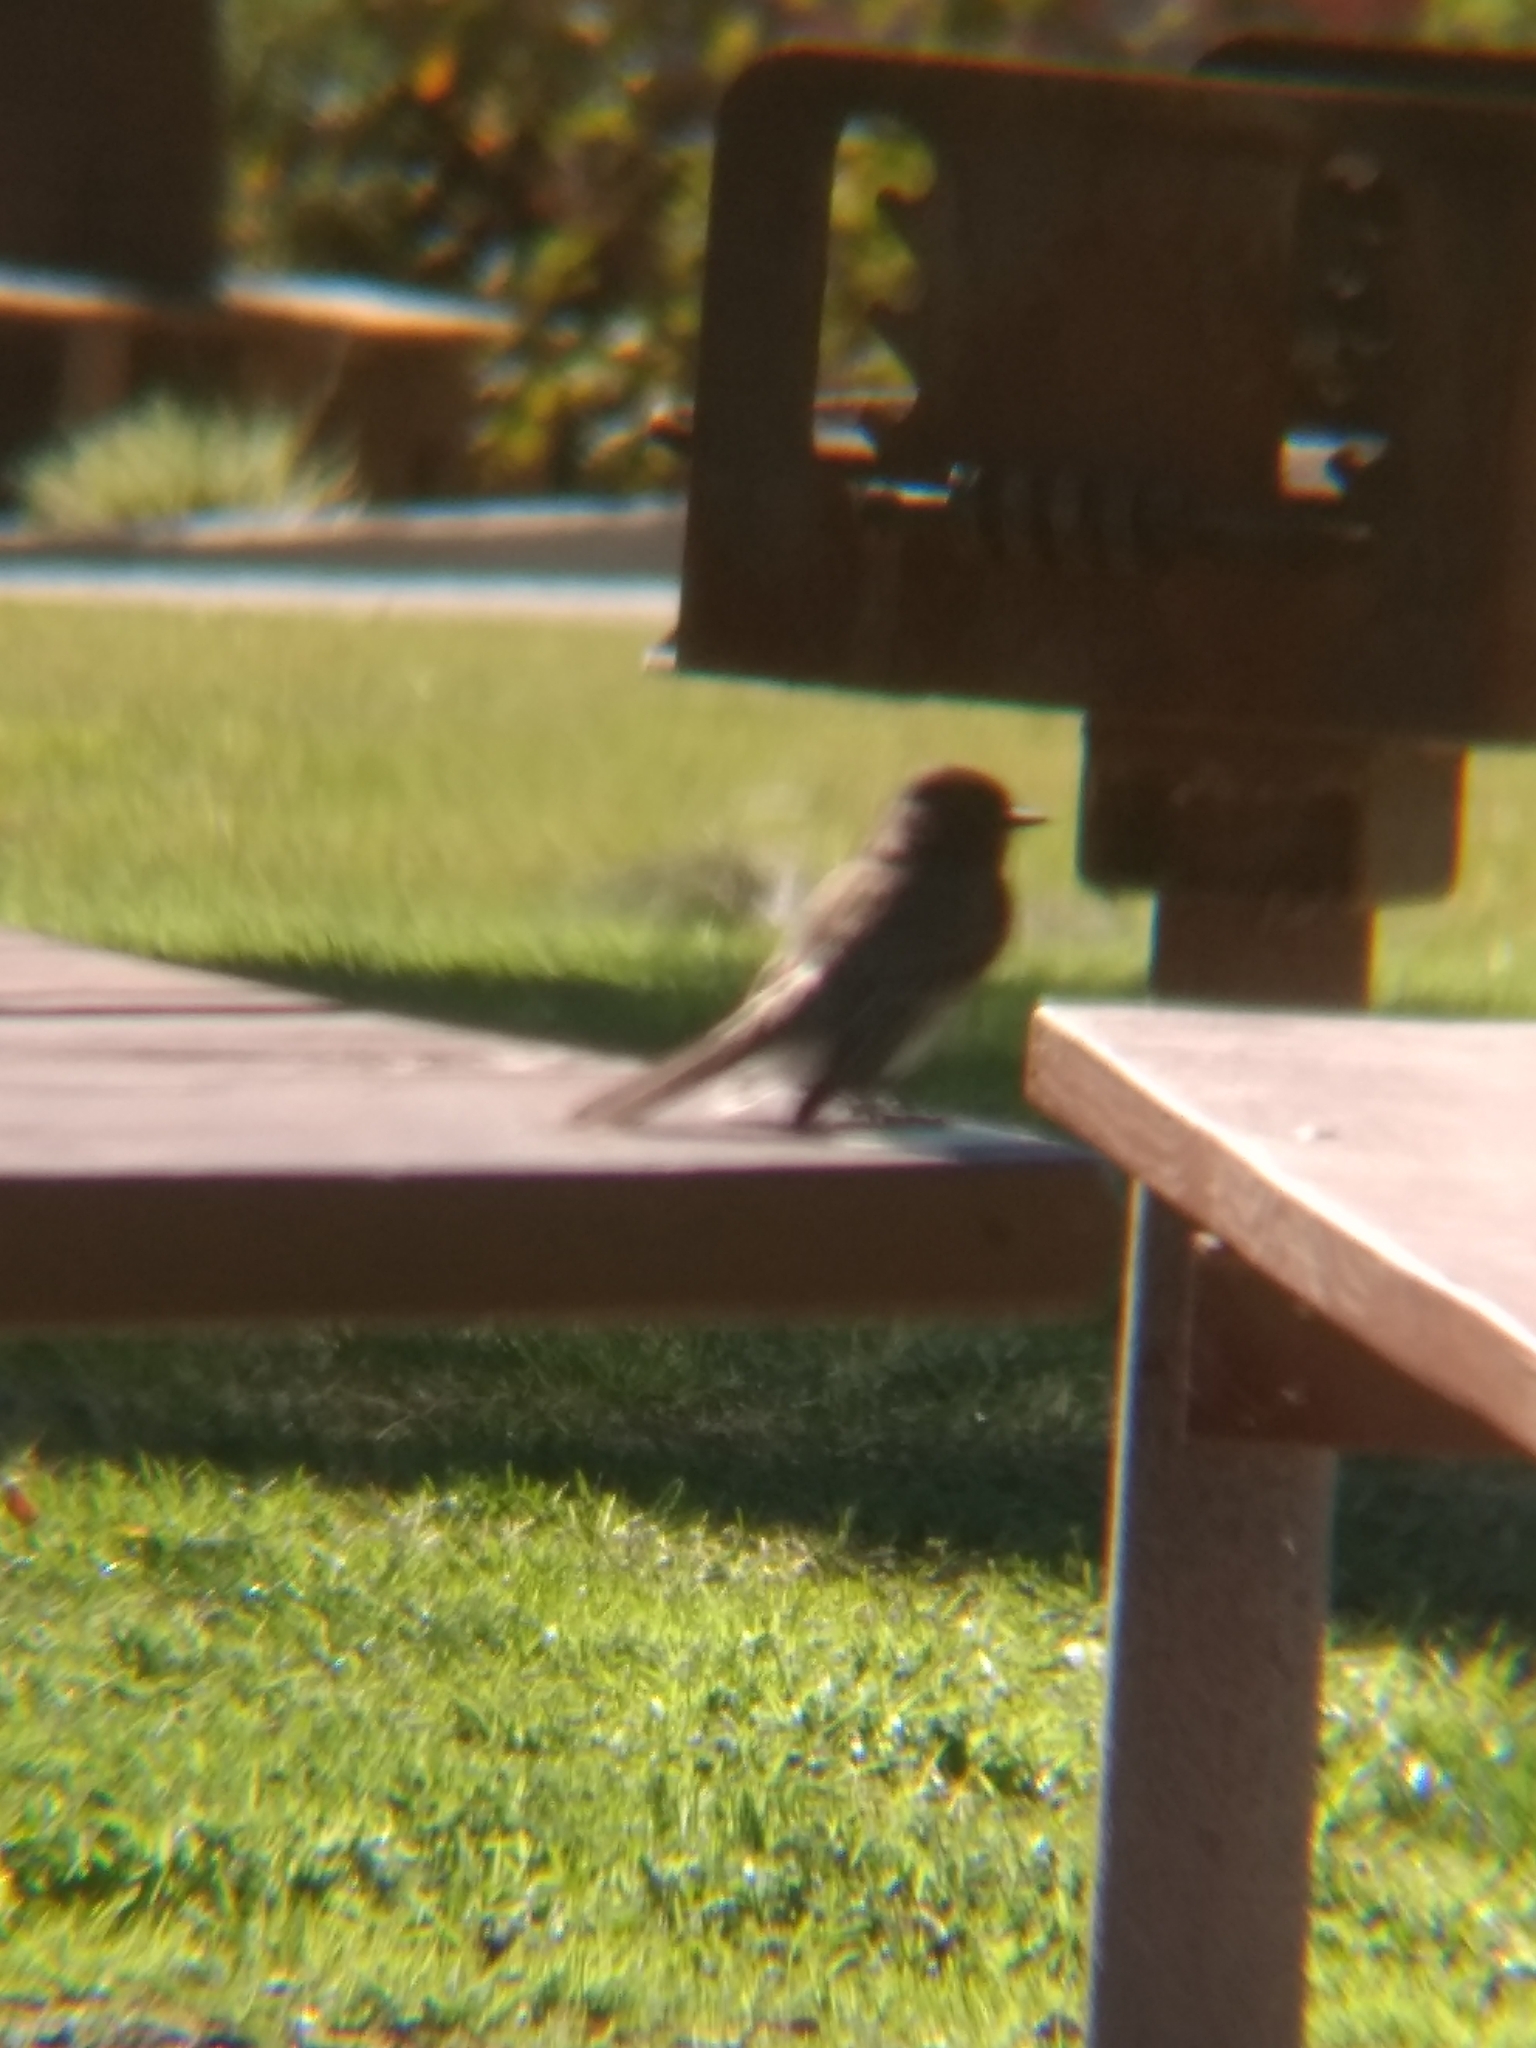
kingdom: Animalia
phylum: Chordata
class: Aves
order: Passeriformes
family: Tyrannidae
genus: Sayornis
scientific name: Sayornis nigricans
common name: Black phoebe
